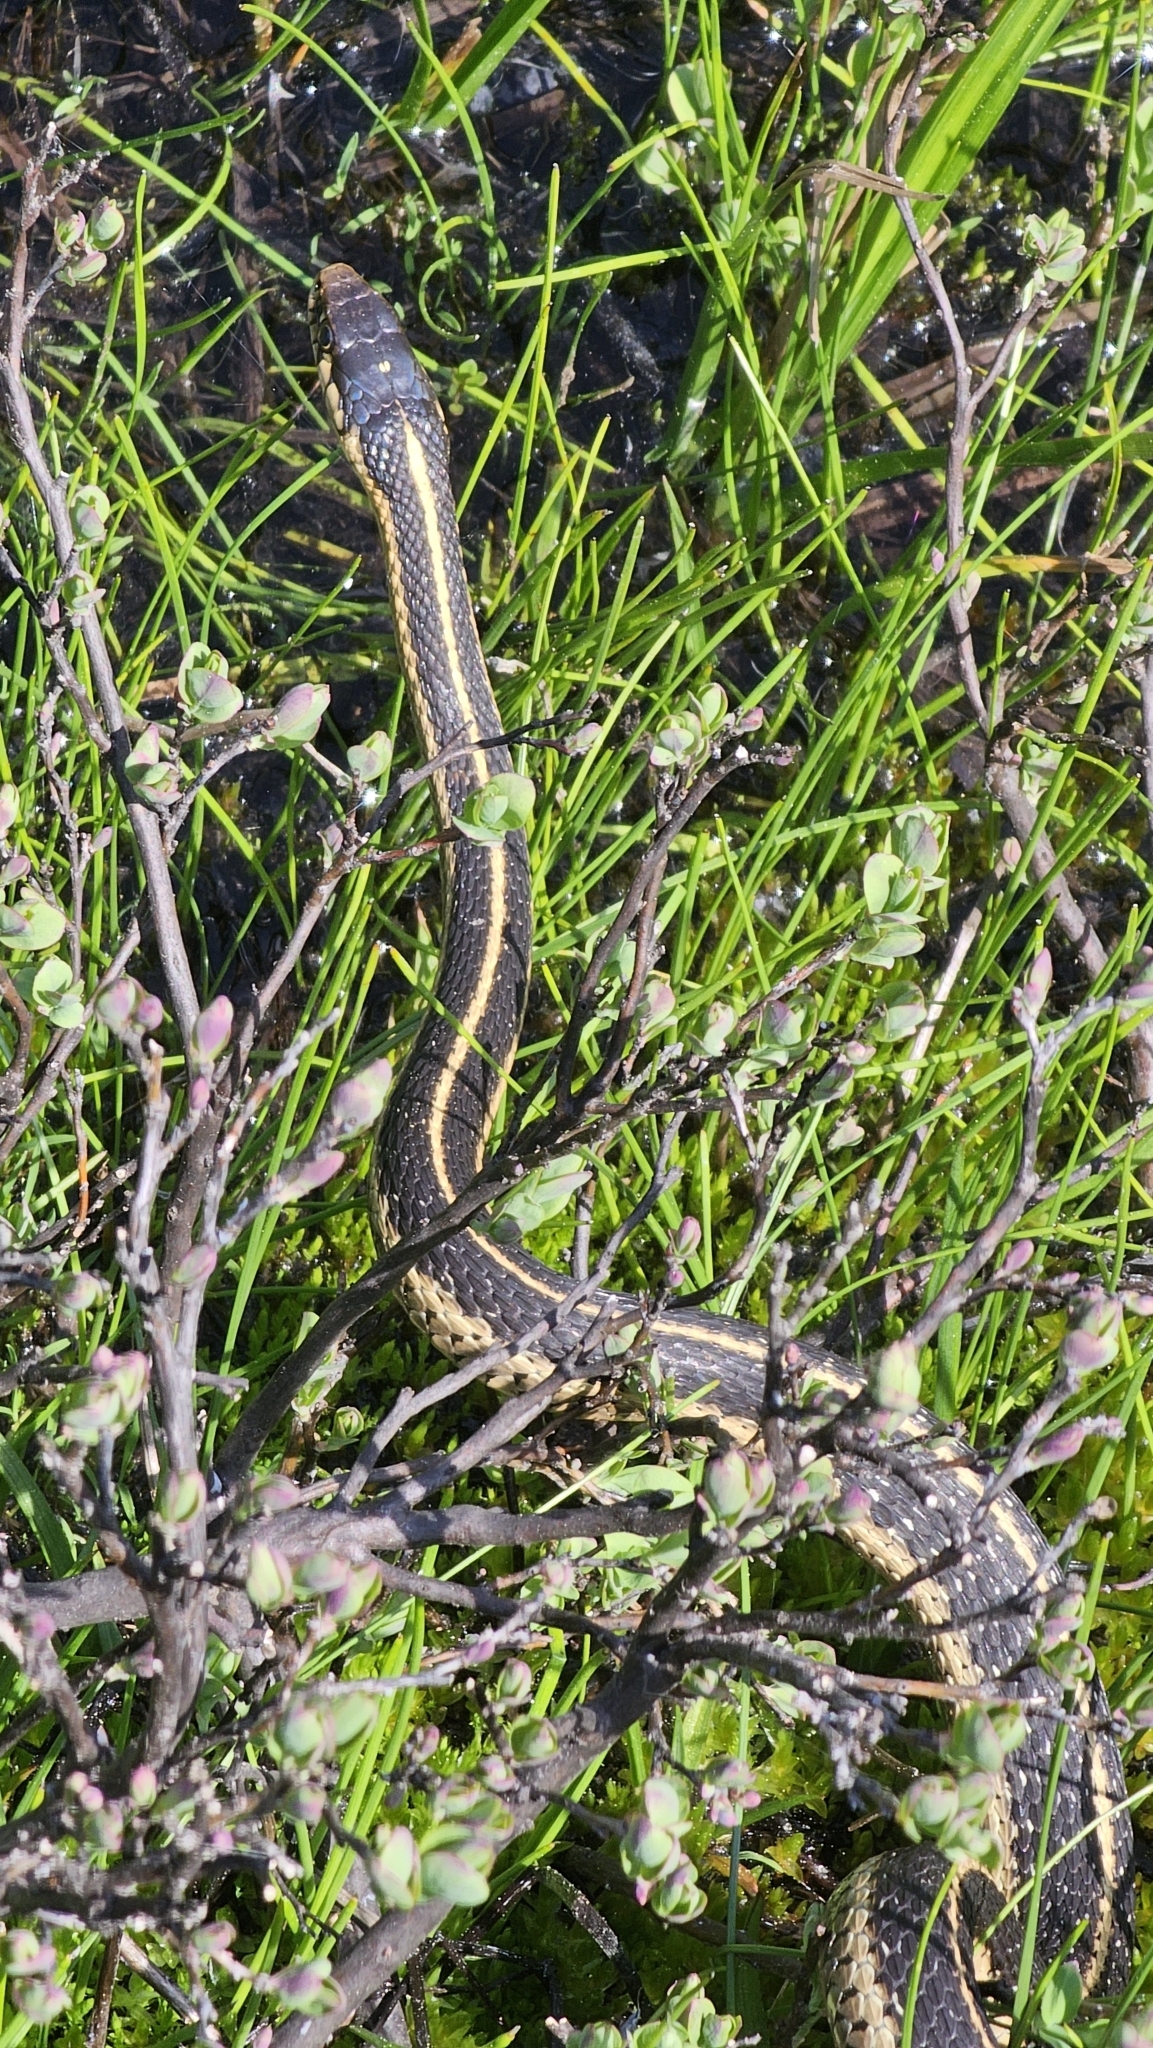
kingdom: Animalia
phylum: Chordata
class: Squamata
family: Colubridae
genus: Thamnophis
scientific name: Thamnophis elegans
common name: Western terrestrial garter snake
